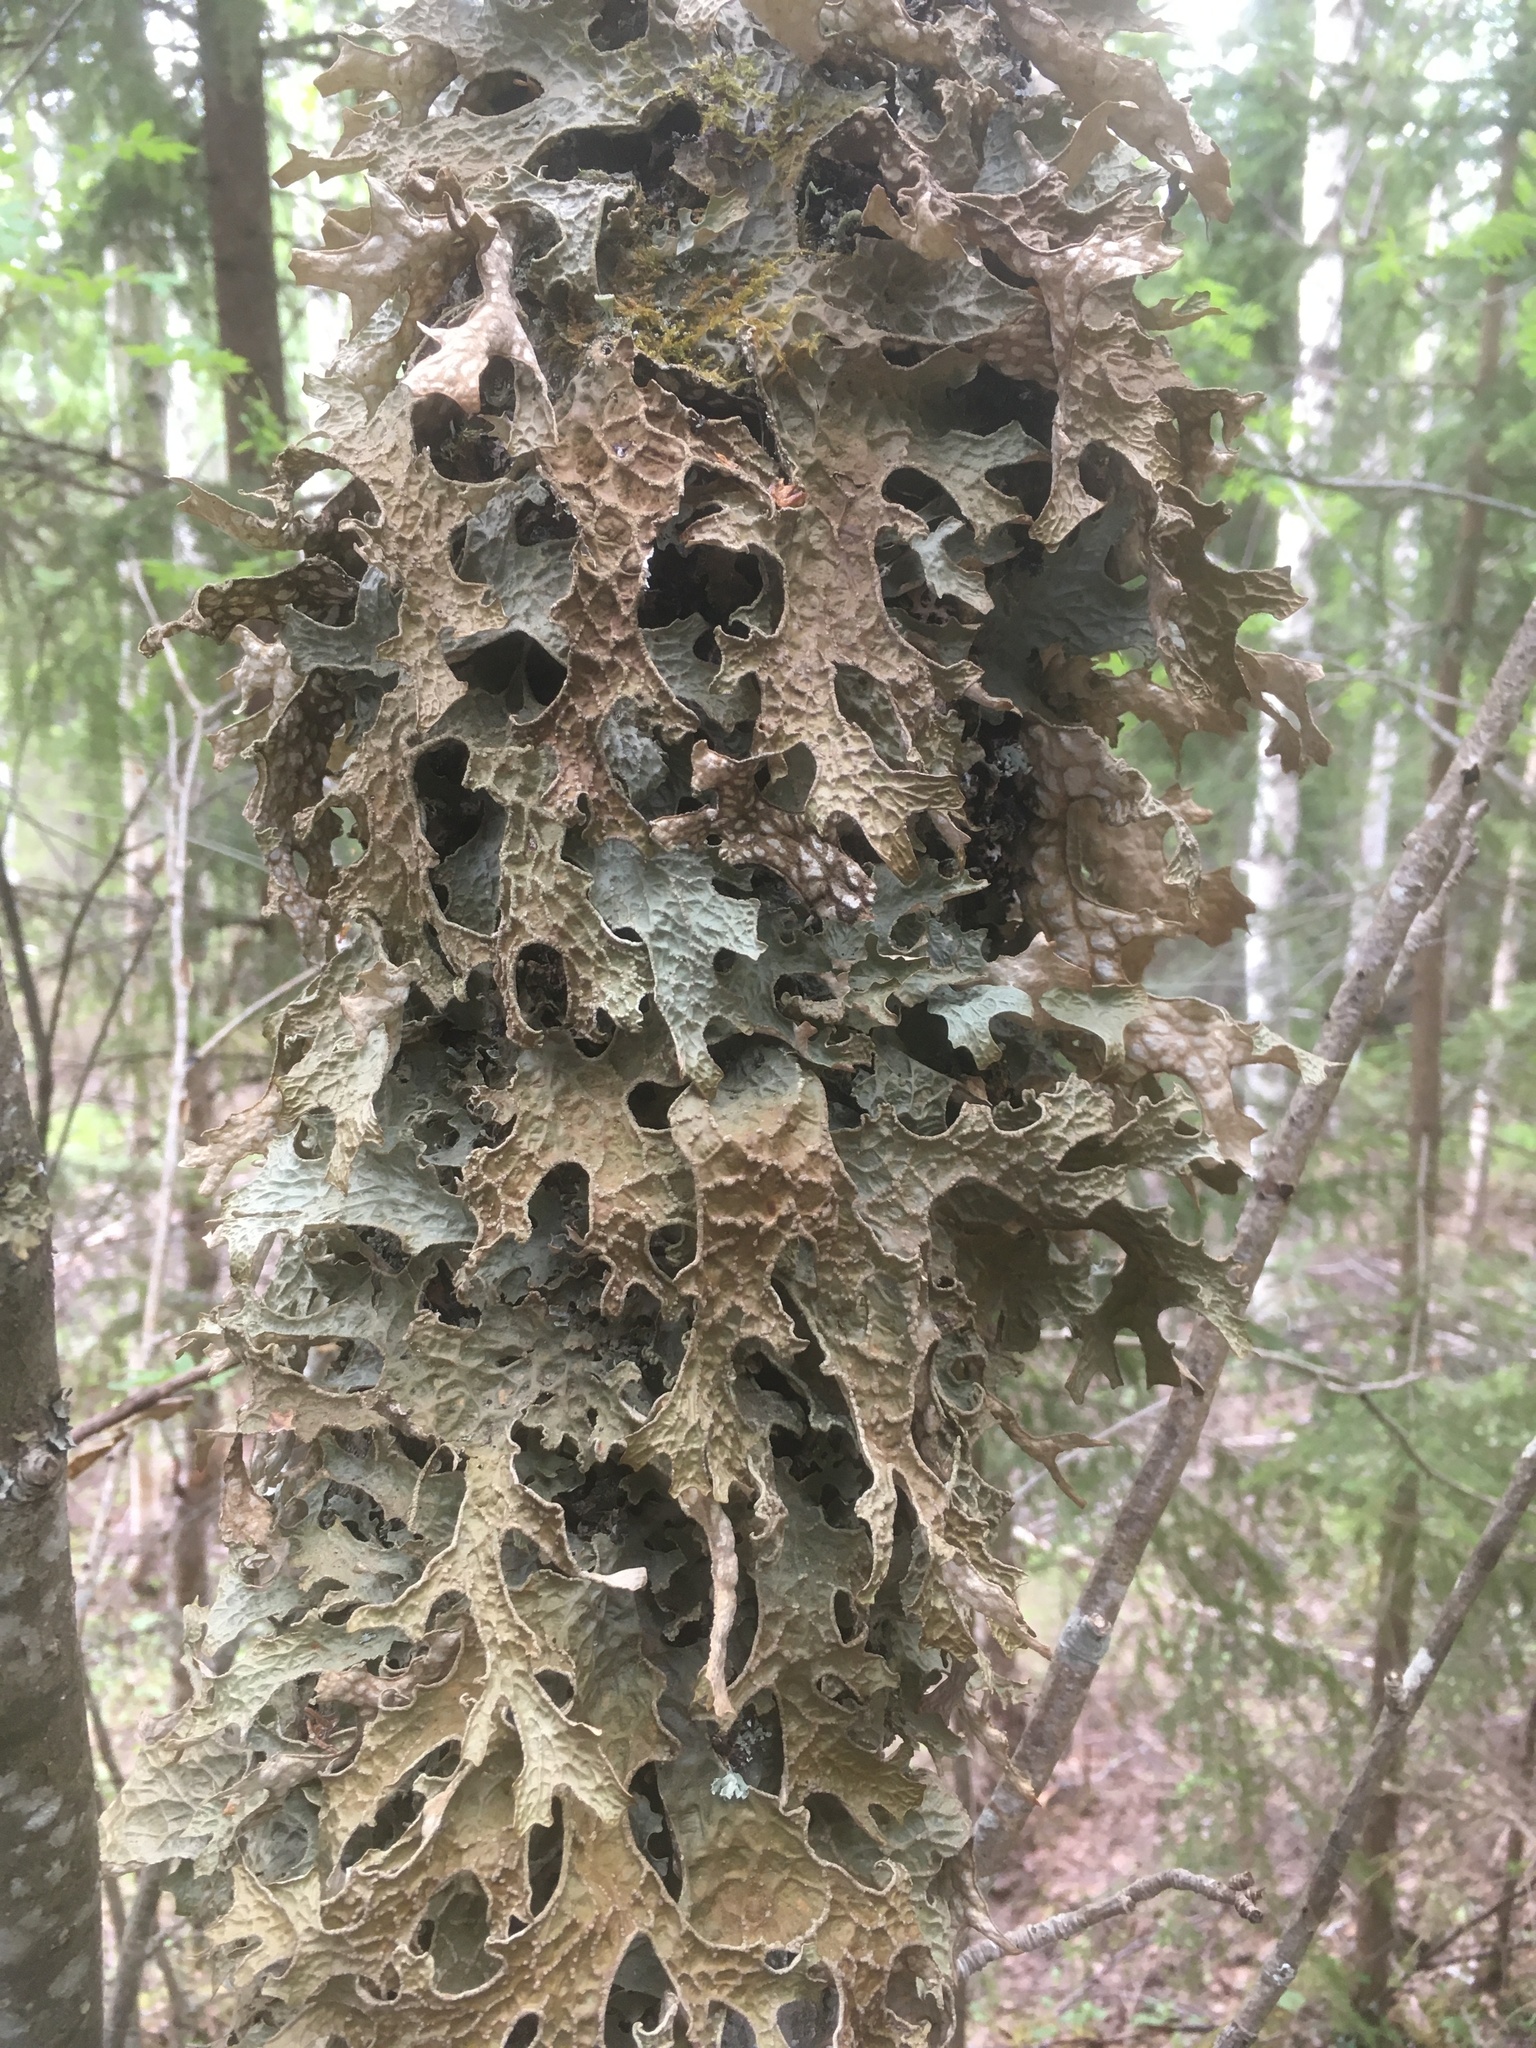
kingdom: Fungi
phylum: Ascomycota
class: Lecanoromycetes
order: Peltigerales
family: Lobariaceae
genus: Lobaria
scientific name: Lobaria pulmonaria
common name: Lungwort
